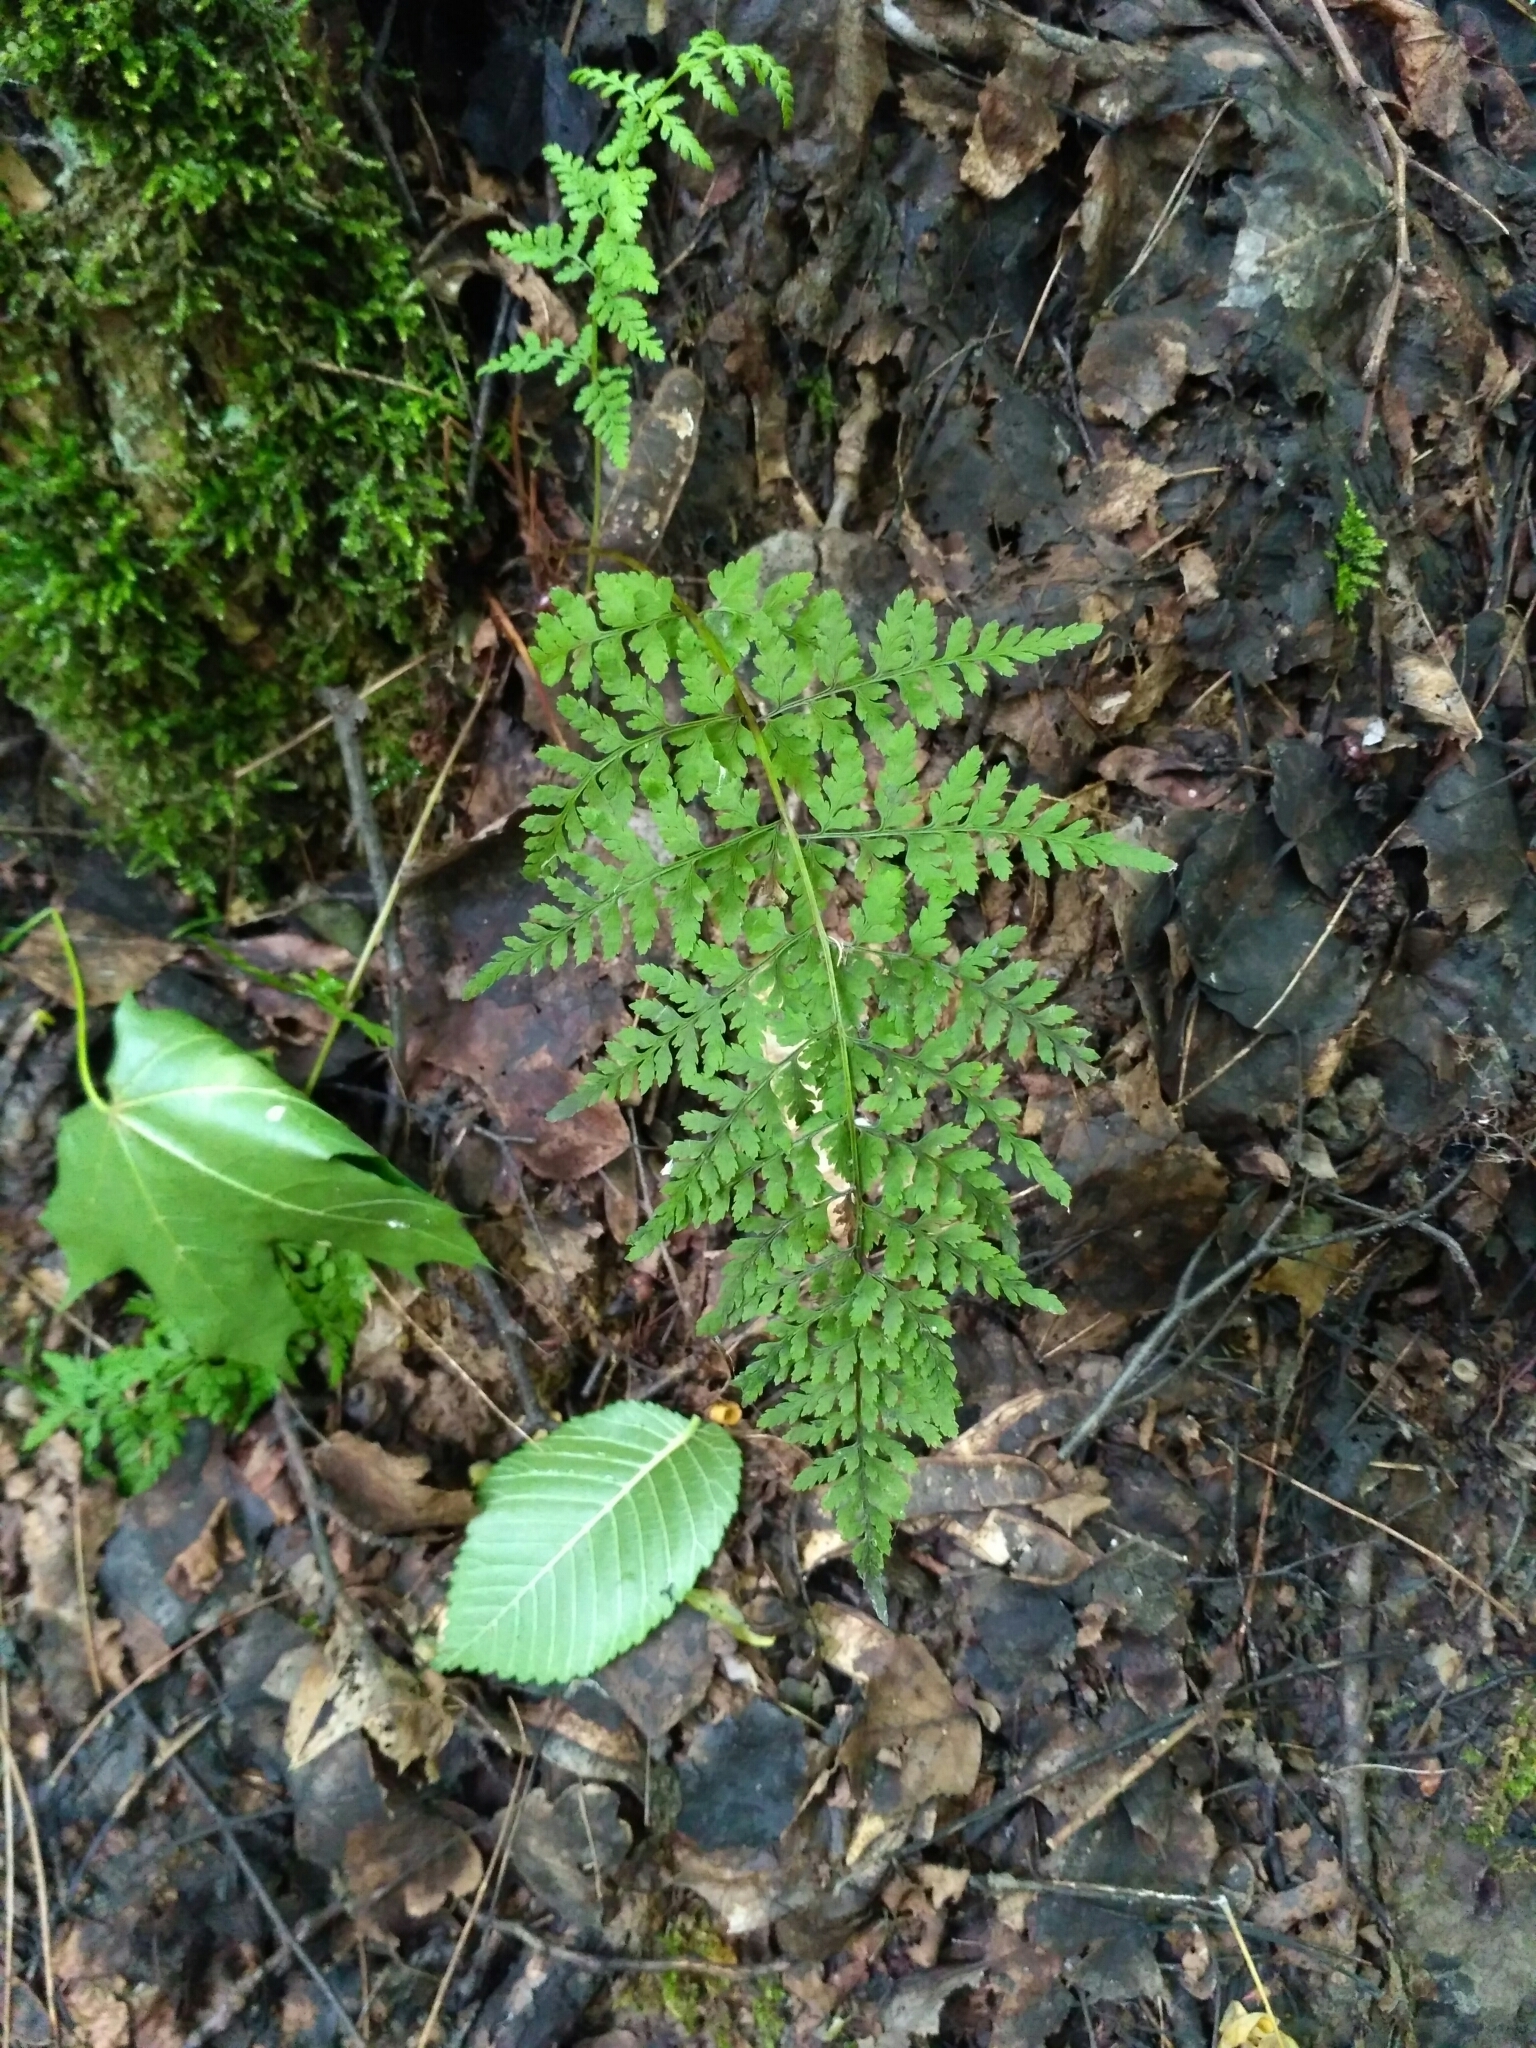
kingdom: Plantae
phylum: Tracheophyta
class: Polypodiopsida
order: Polypodiales
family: Cystopteridaceae
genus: Cystopteris
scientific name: Cystopteris fragilis
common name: Brittle bladder fern
